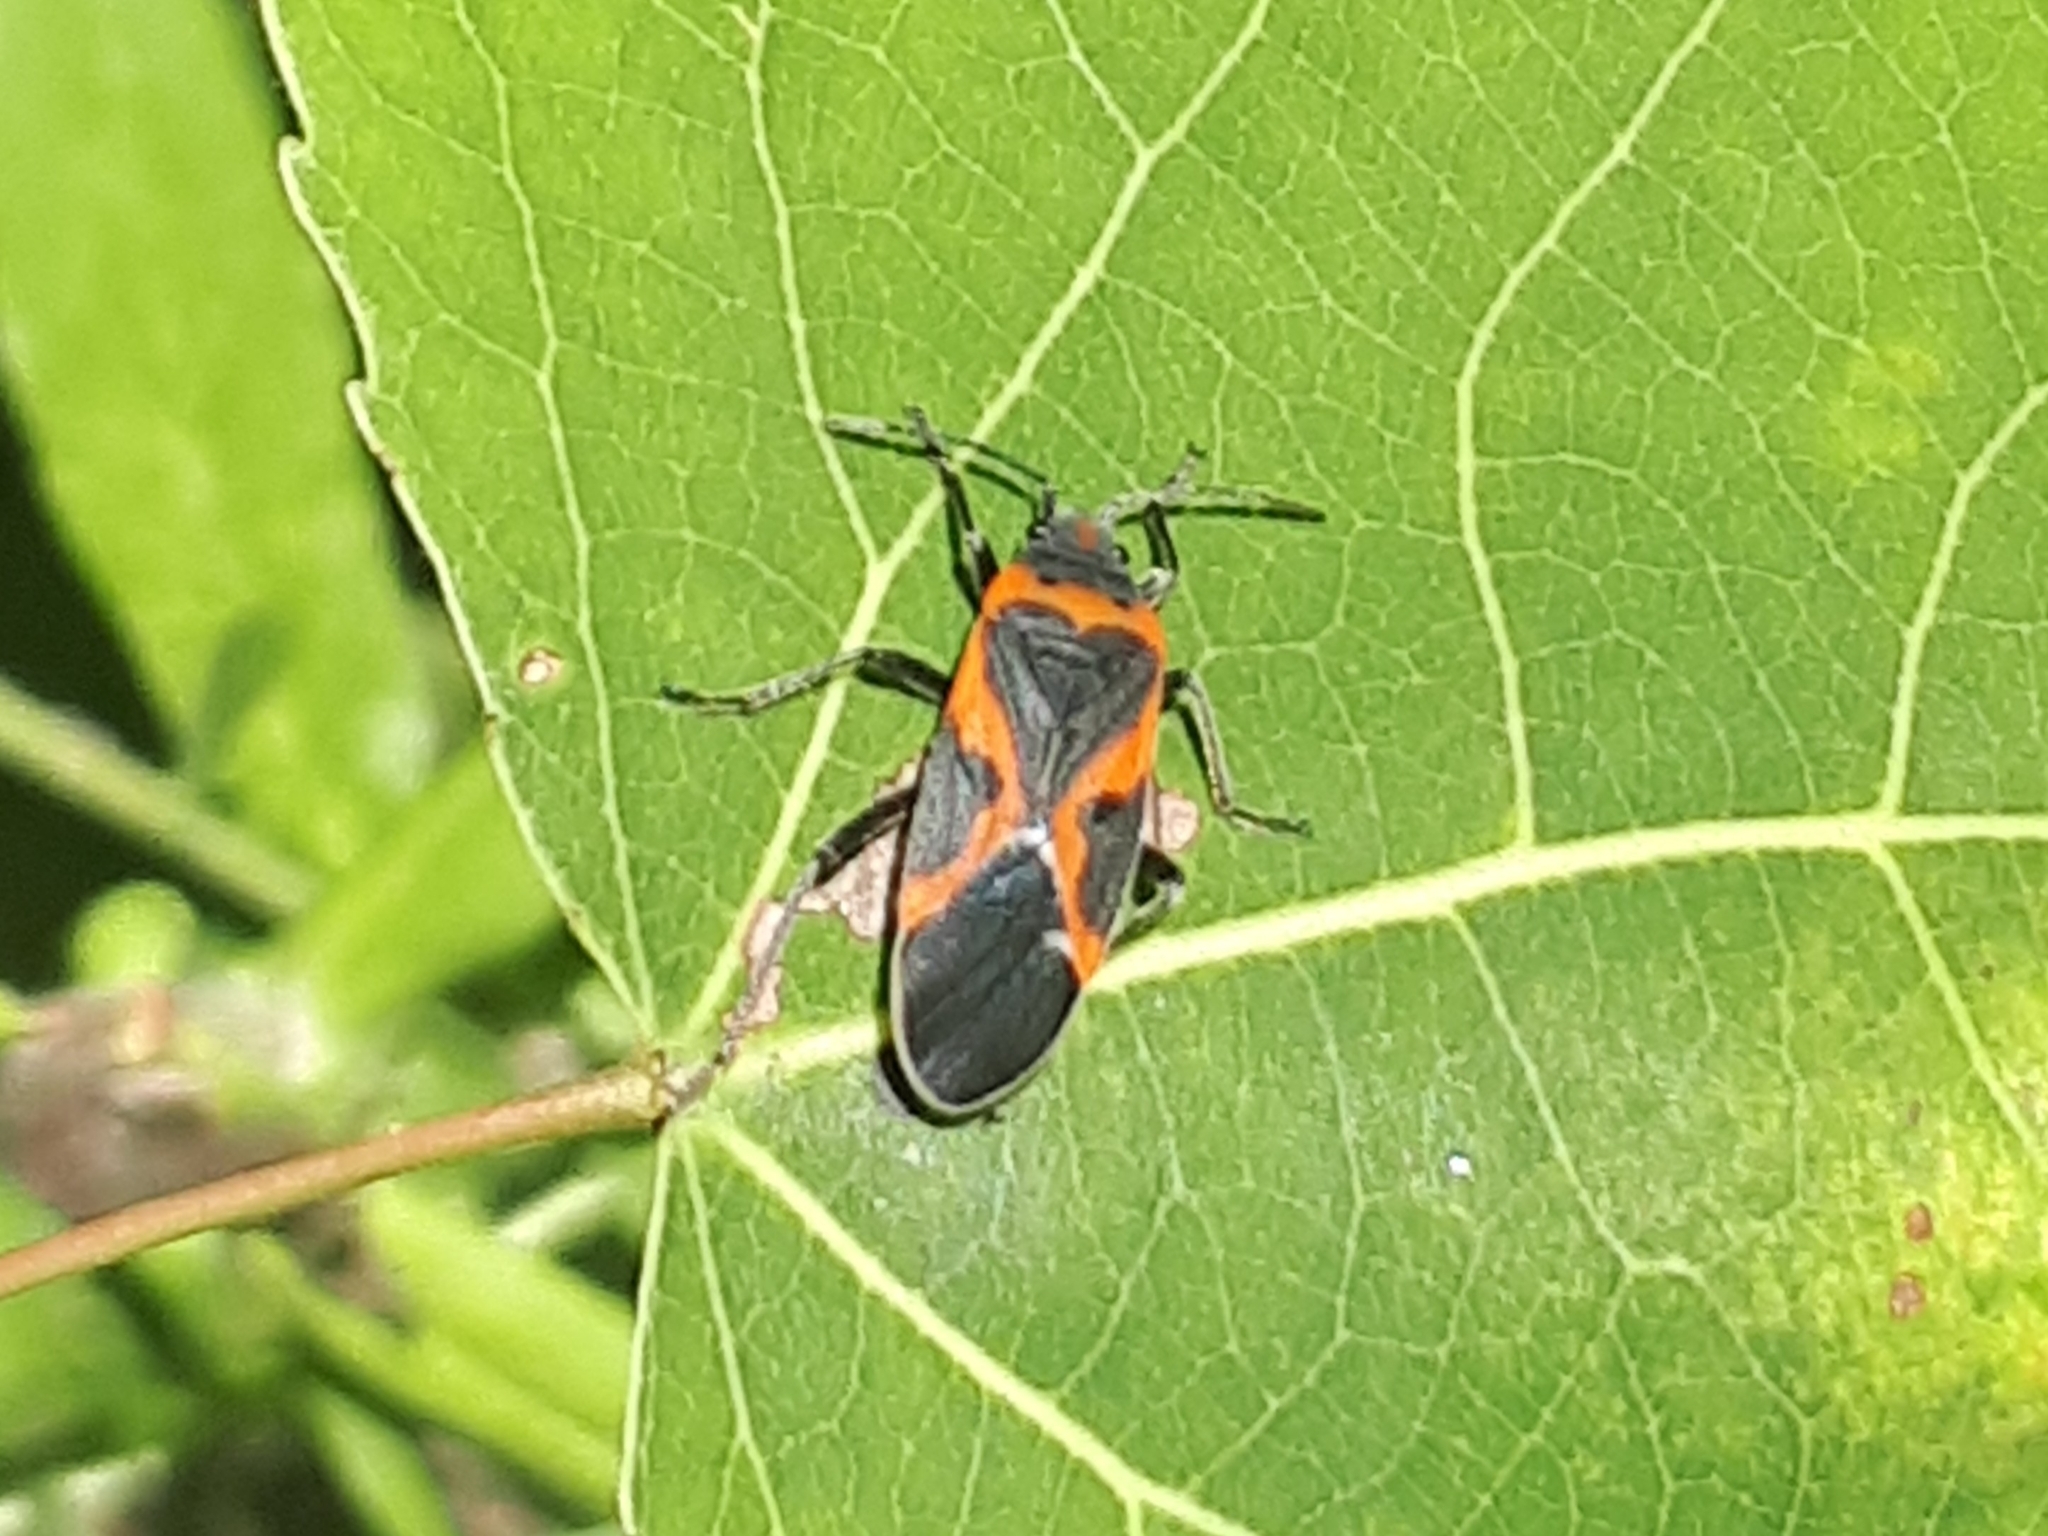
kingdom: Animalia
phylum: Arthropoda
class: Insecta
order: Hemiptera
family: Lygaeidae
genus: Lygaeus
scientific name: Lygaeus kalmii
